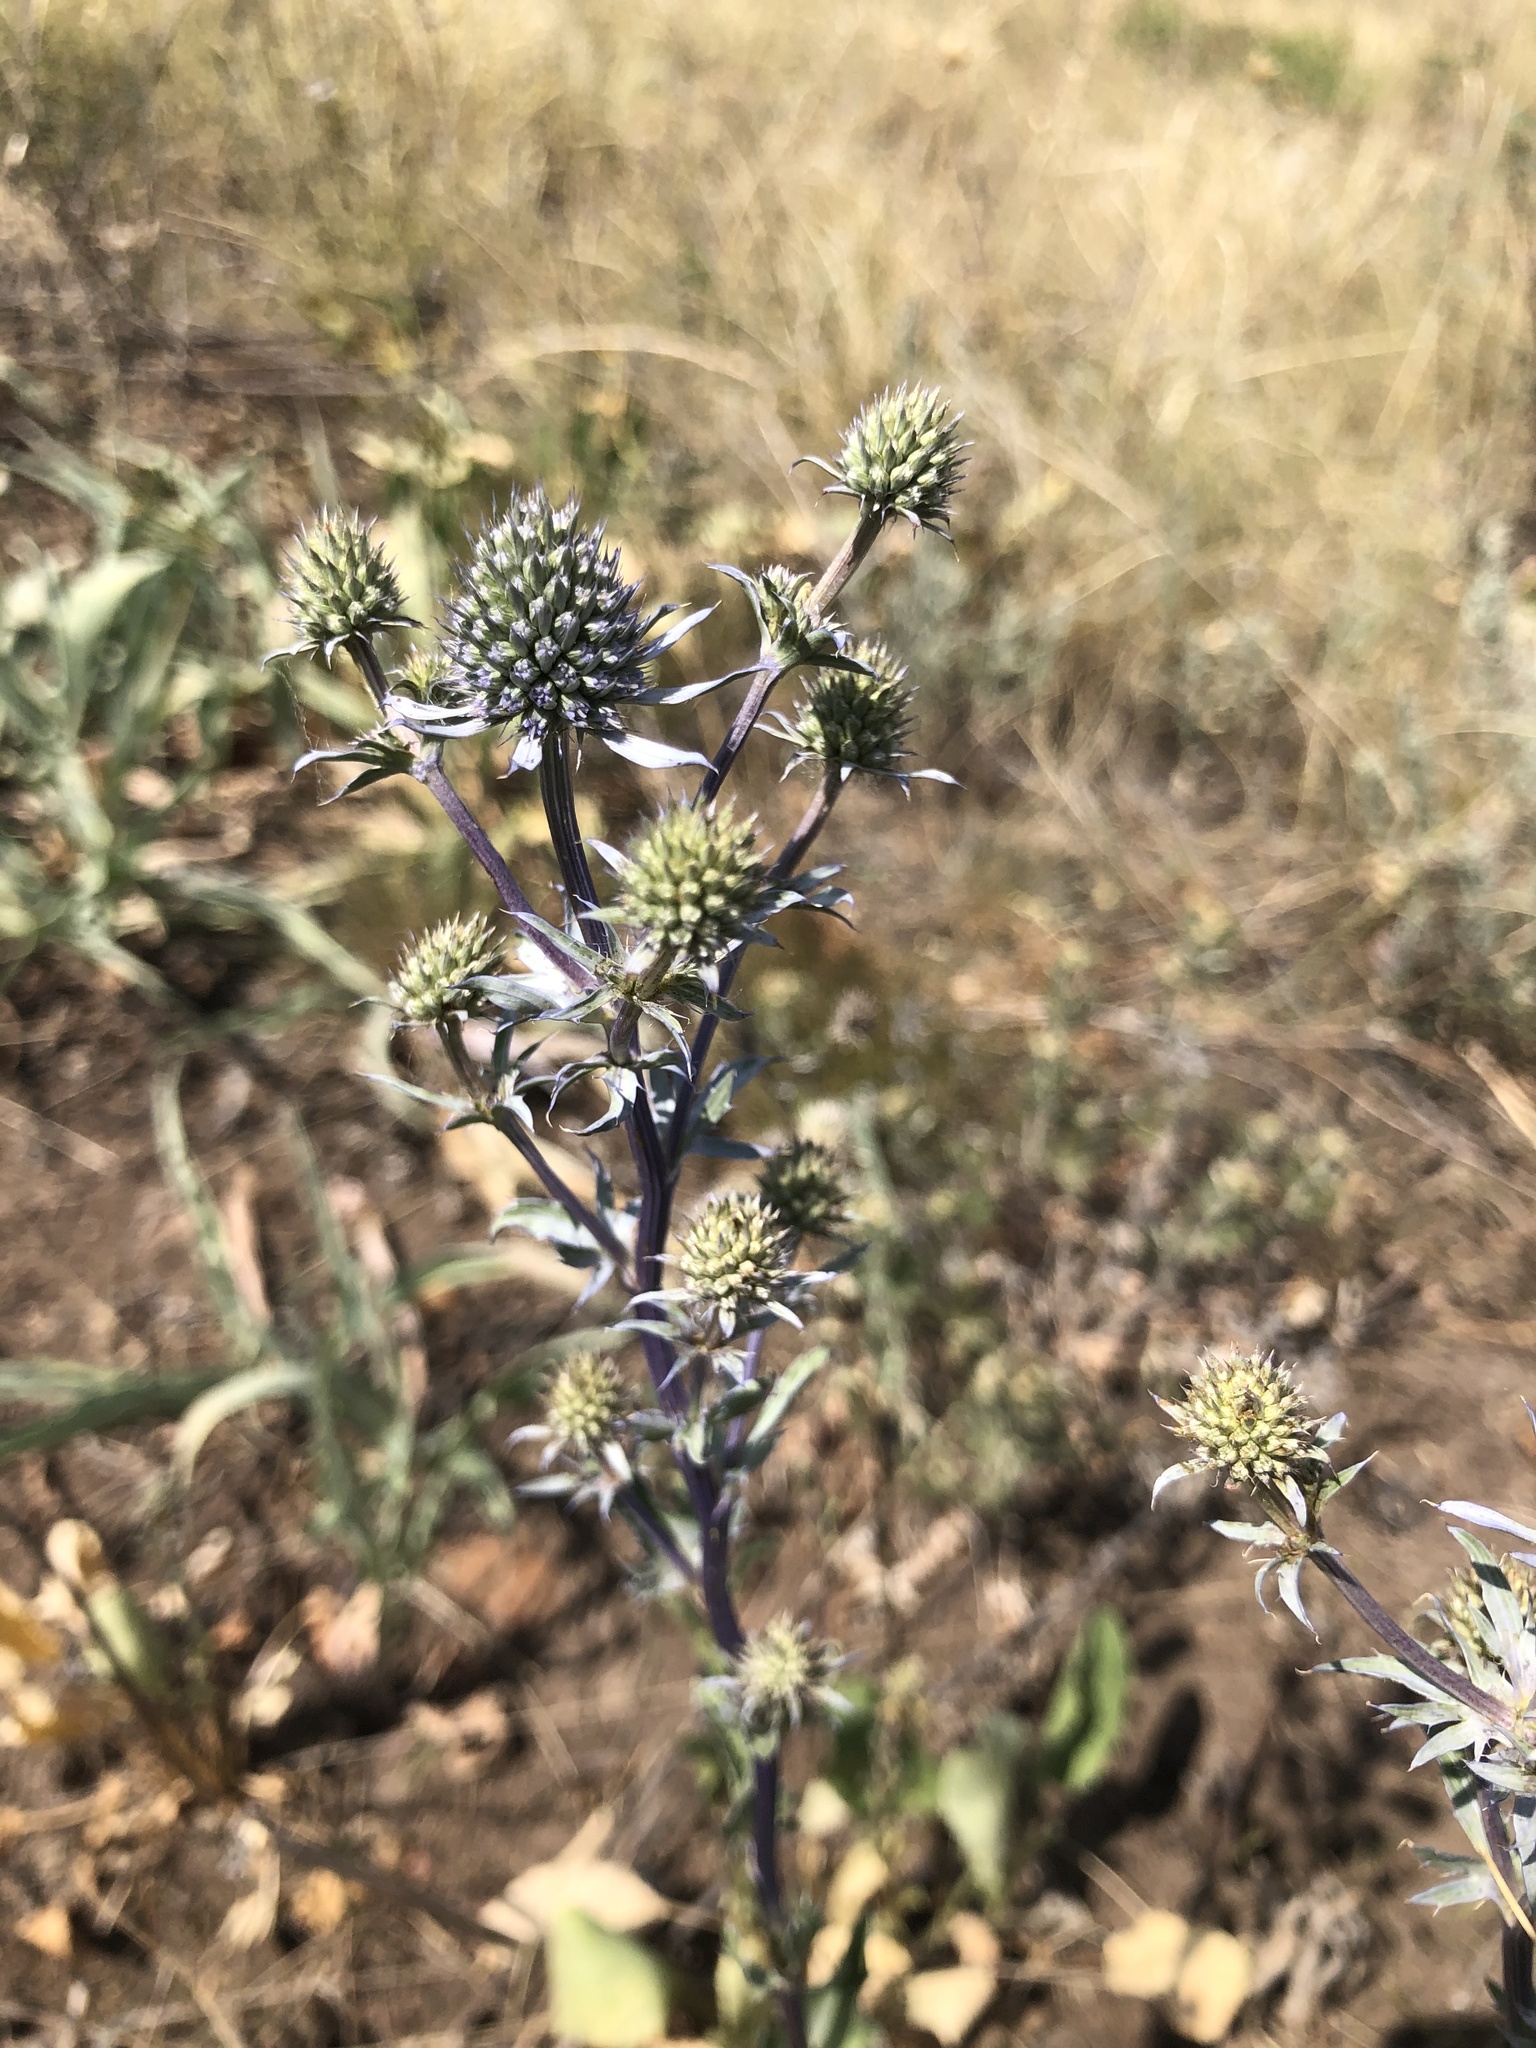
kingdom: Plantae
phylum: Tracheophyta
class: Magnoliopsida
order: Apiales
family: Apiaceae
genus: Eryngium
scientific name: Eryngium planum
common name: Blue eryngo
